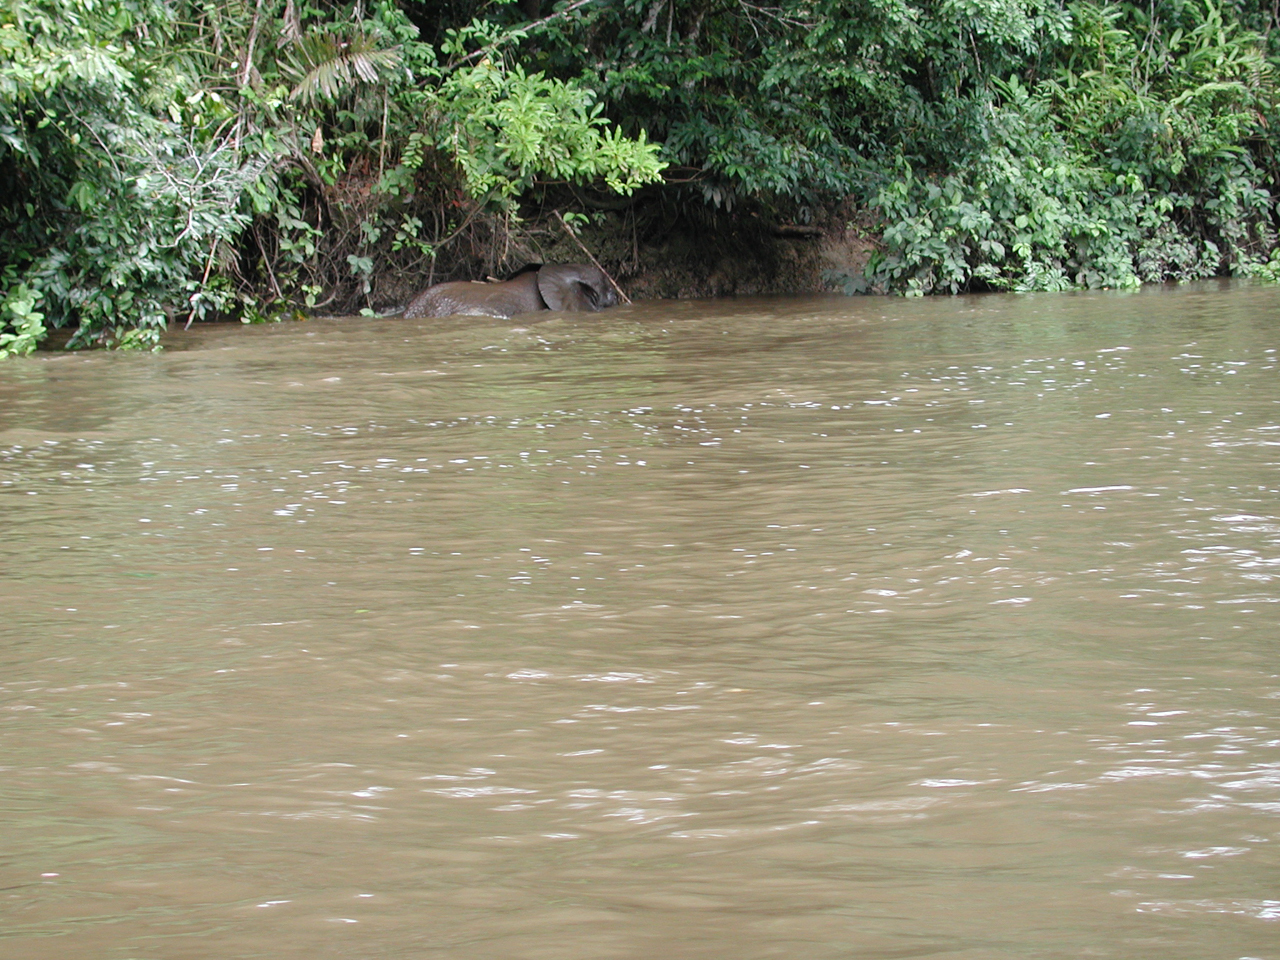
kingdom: Animalia
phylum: Chordata
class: Mammalia
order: Proboscidea
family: Elephantidae
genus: Loxodonta
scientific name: Loxodonta cyclotis
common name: African forest elephant
